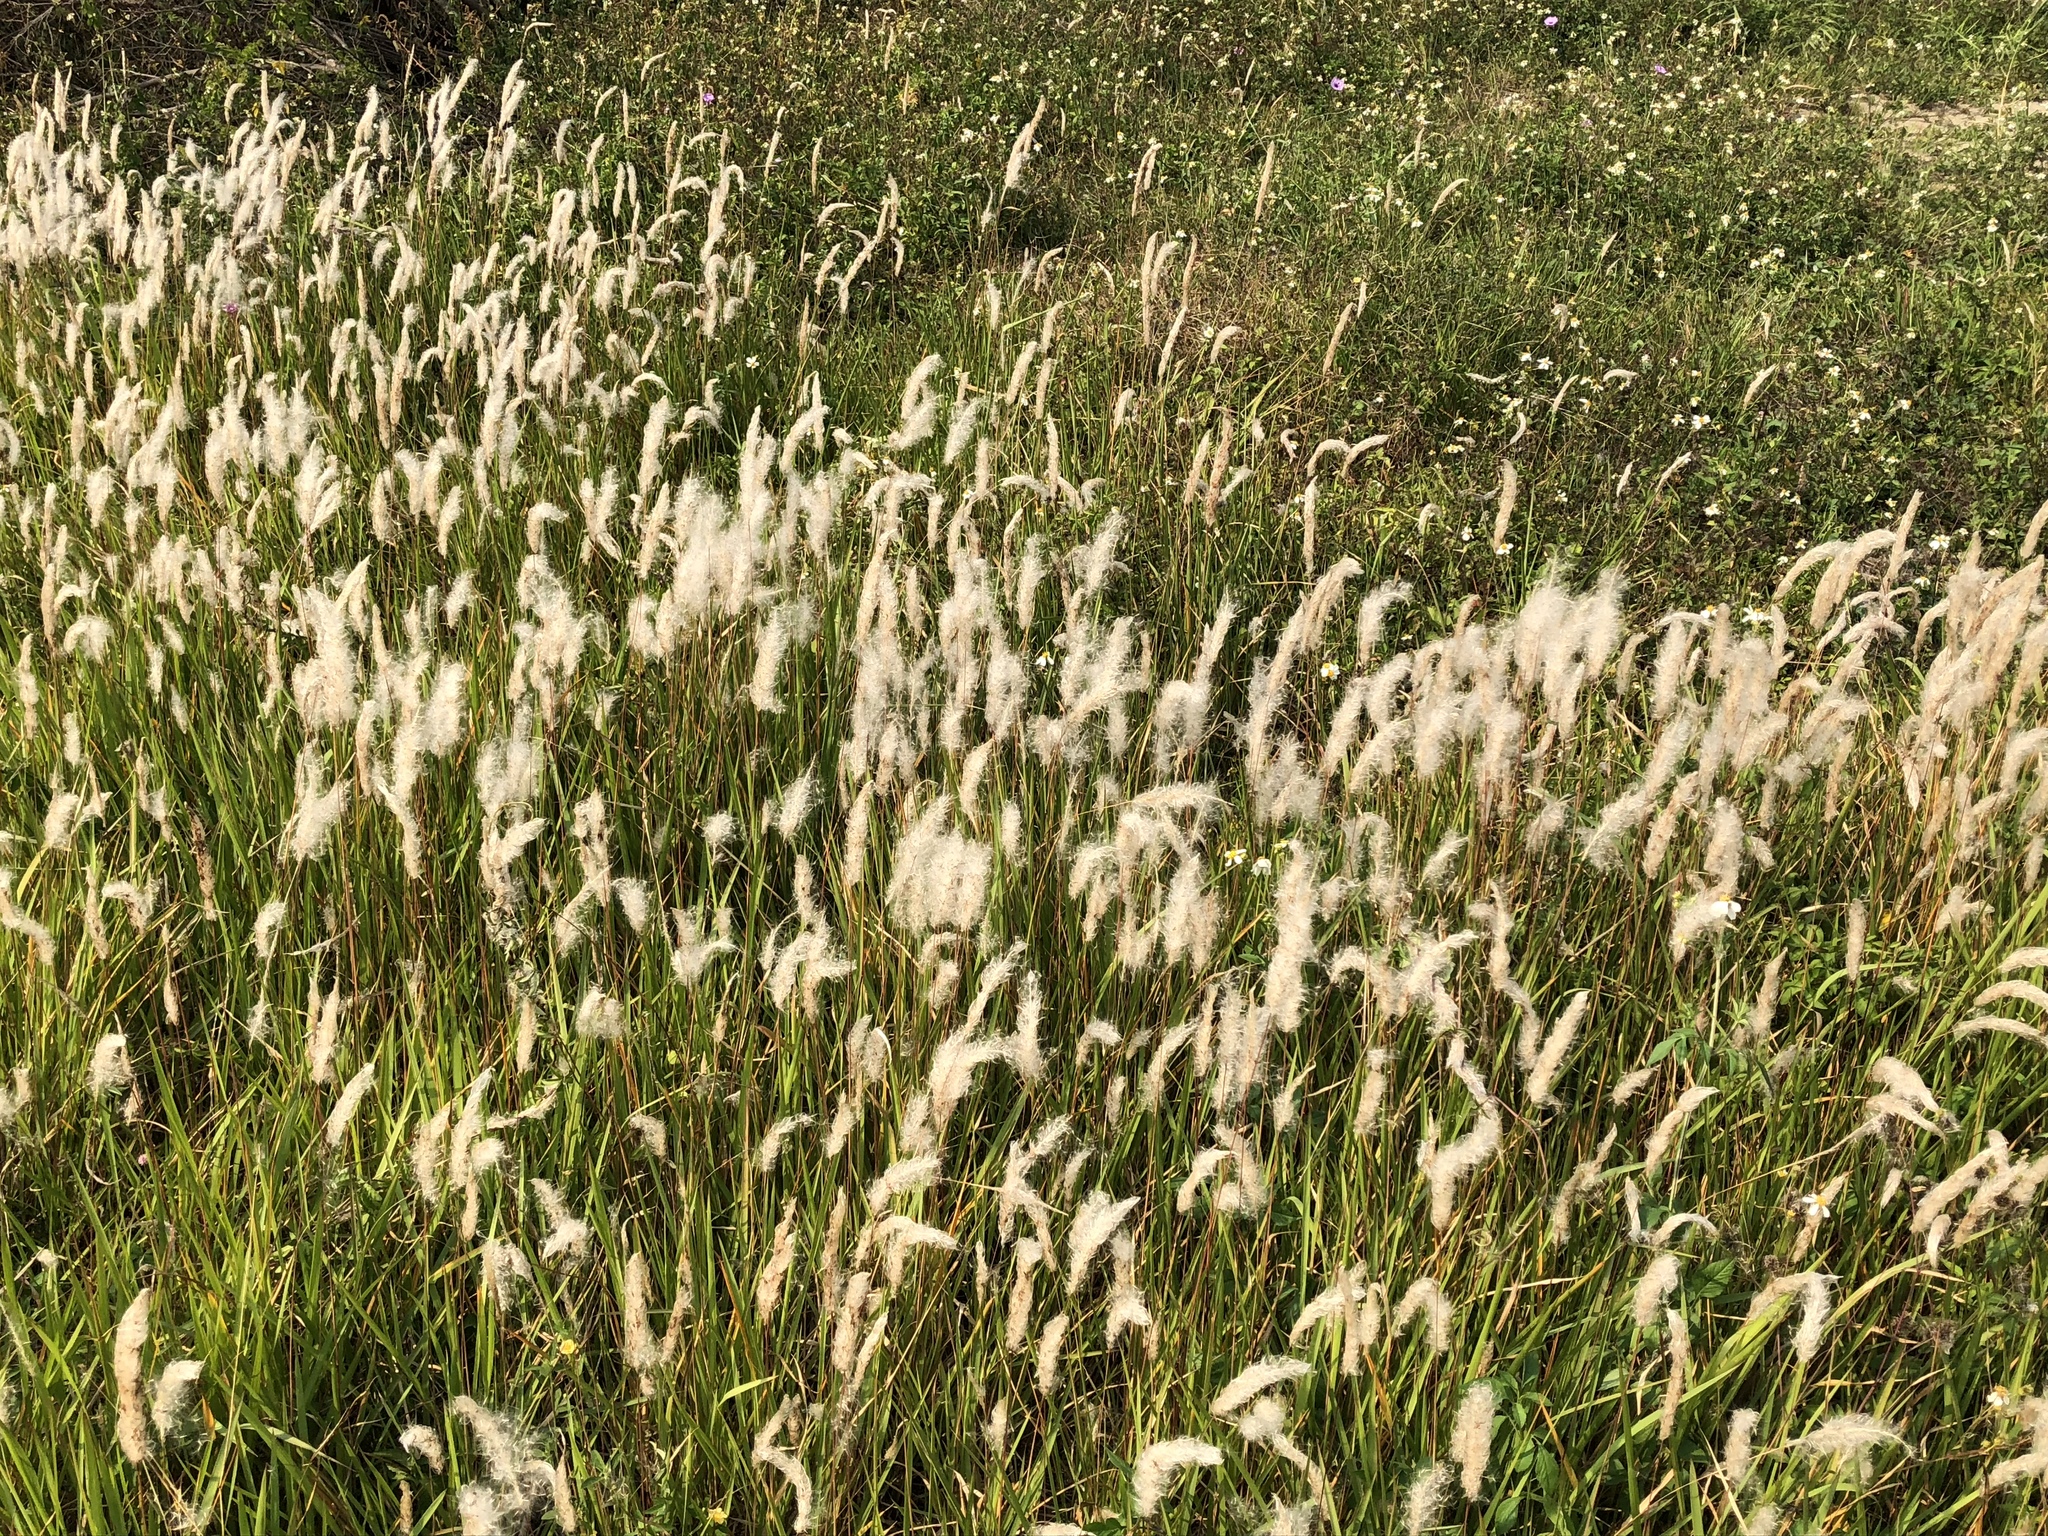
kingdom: Plantae
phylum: Tracheophyta
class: Liliopsida
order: Poales
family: Poaceae
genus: Imperata
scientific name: Imperata cylindrica
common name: Cogongrass
